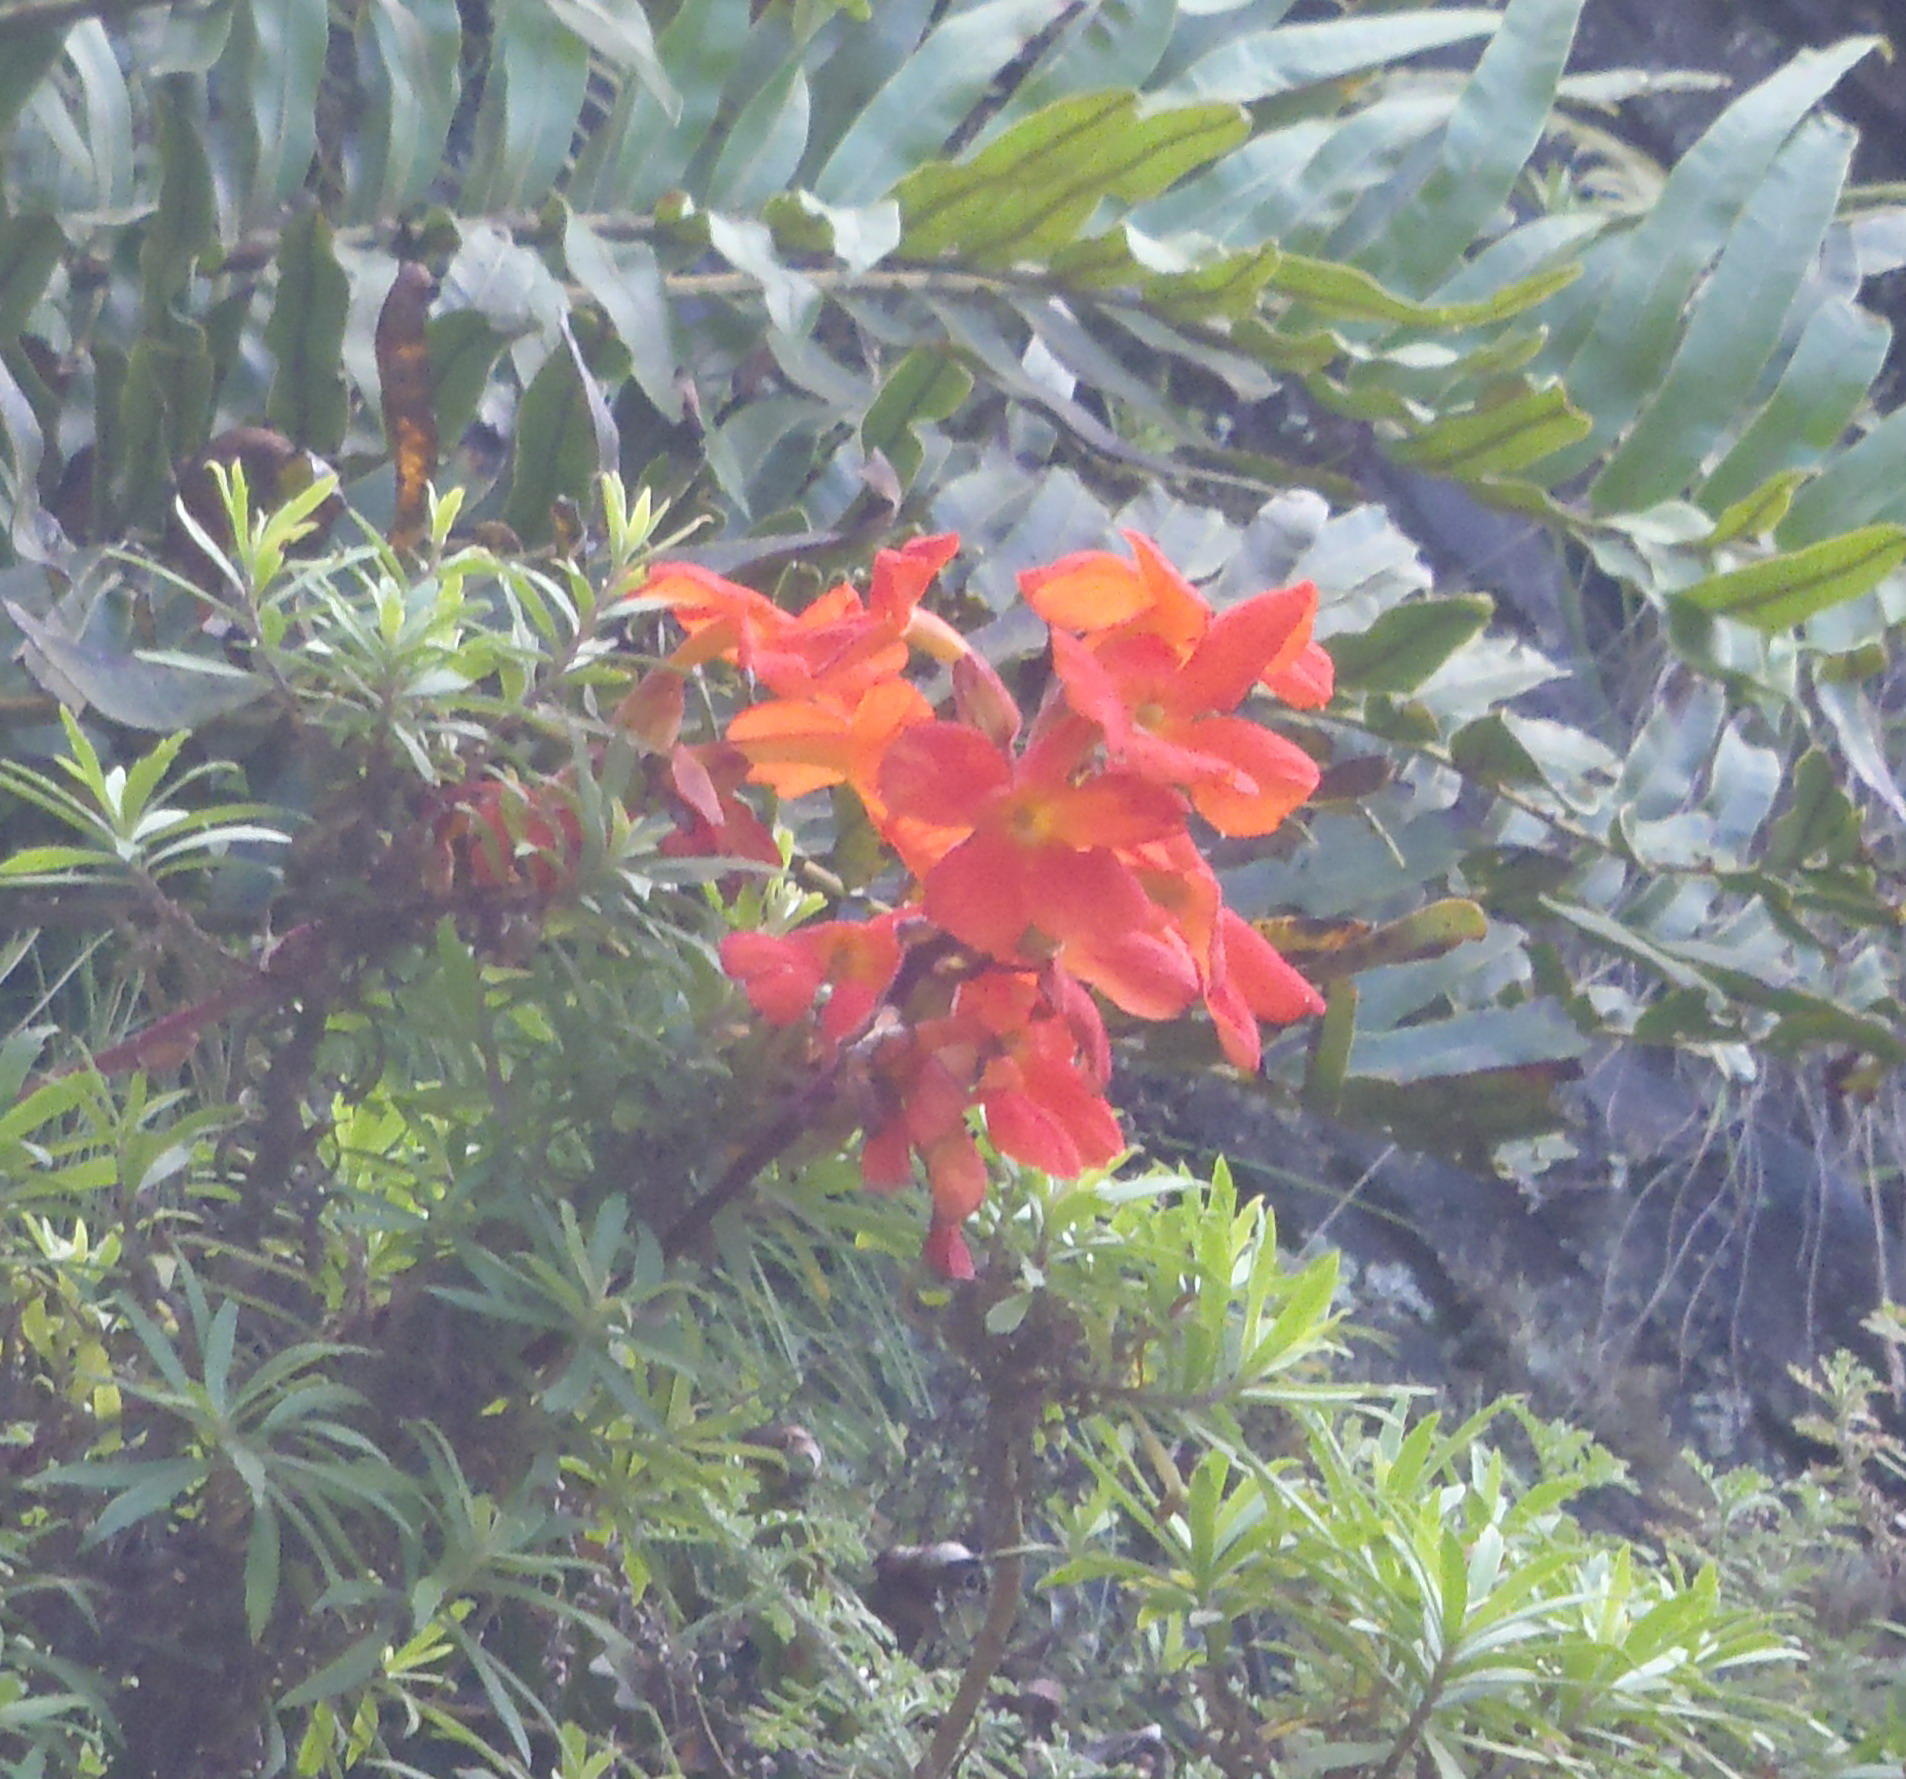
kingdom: Plantae
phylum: Tracheophyta
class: Magnoliopsida
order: Lamiales
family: Orobanchaceae
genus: Harveya
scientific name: Harveya stenosiphon
